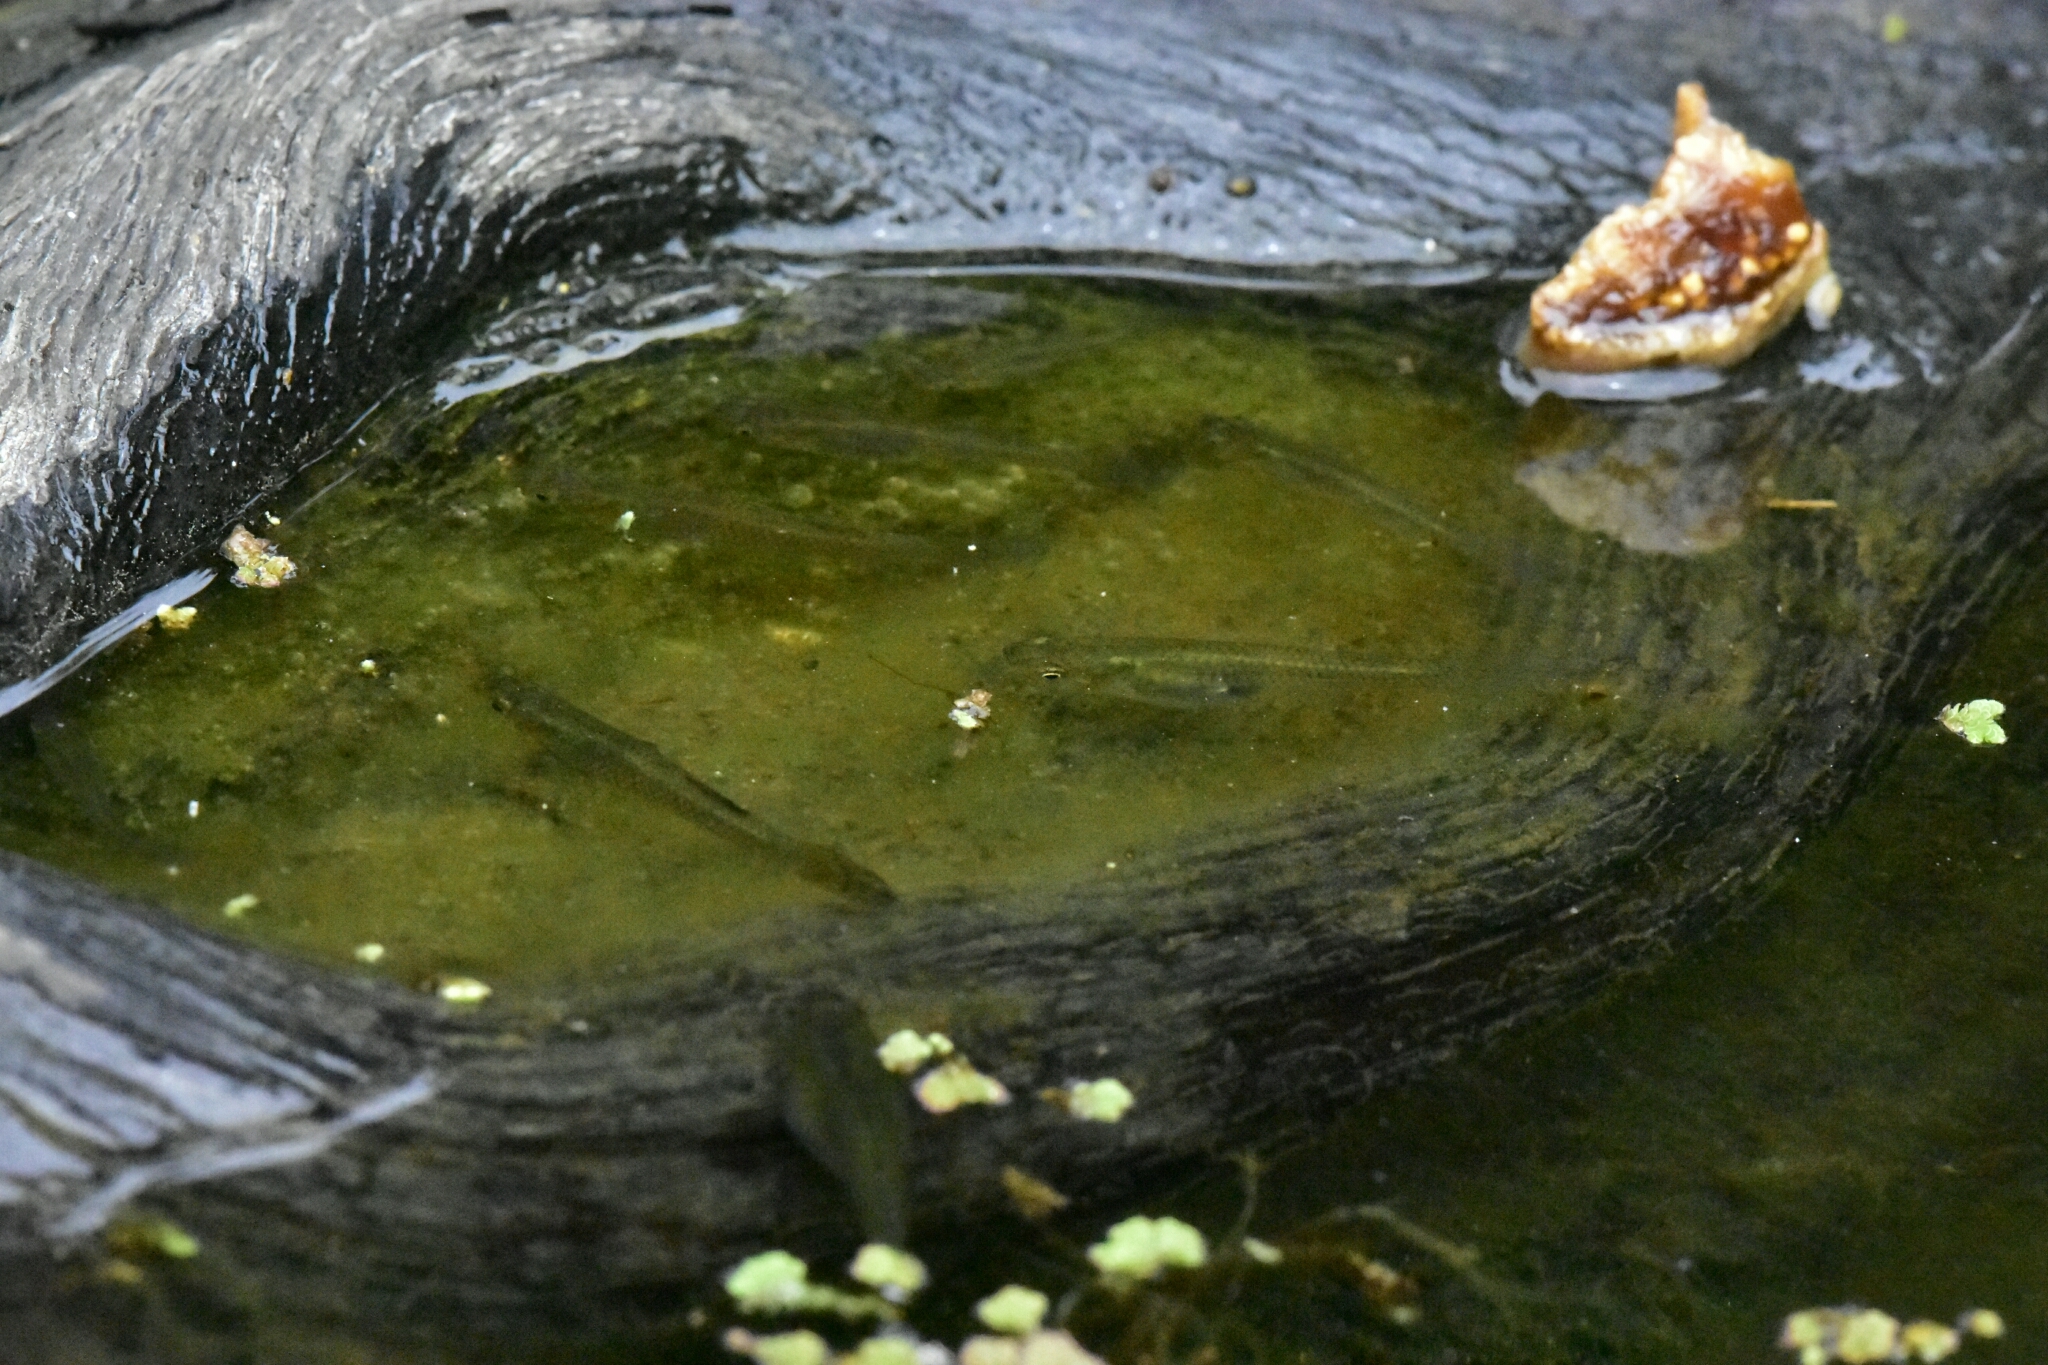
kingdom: Animalia
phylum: Chordata
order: Cyprinodontiformes
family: Poeciliidae
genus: Gambusia
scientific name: Gambusia affinis
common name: Mosquitofish
